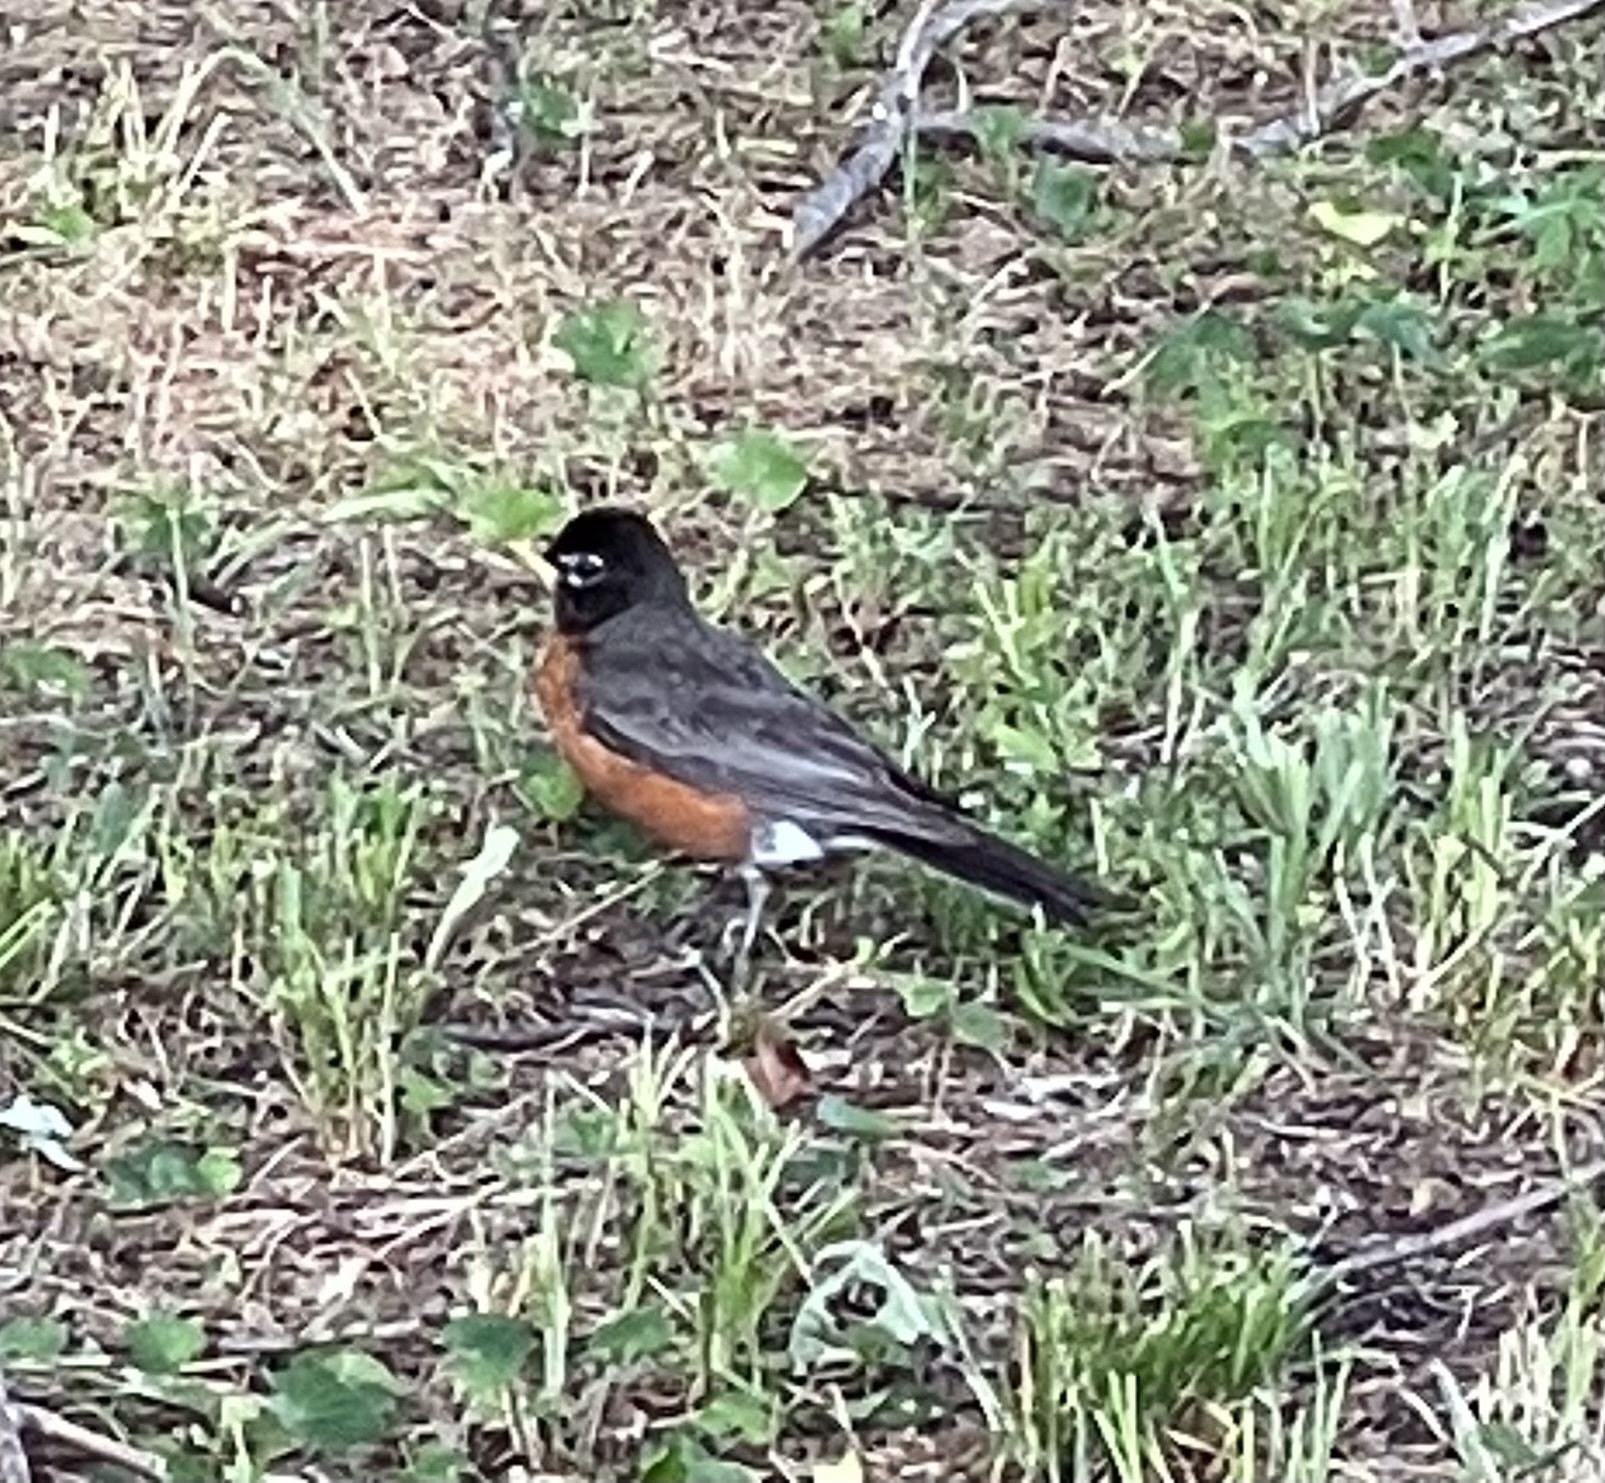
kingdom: Animalia
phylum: Chordata
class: Aves
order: Passeriformes
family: Turdidae
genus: Turdus
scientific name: Turdus migratorius
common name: American robin
